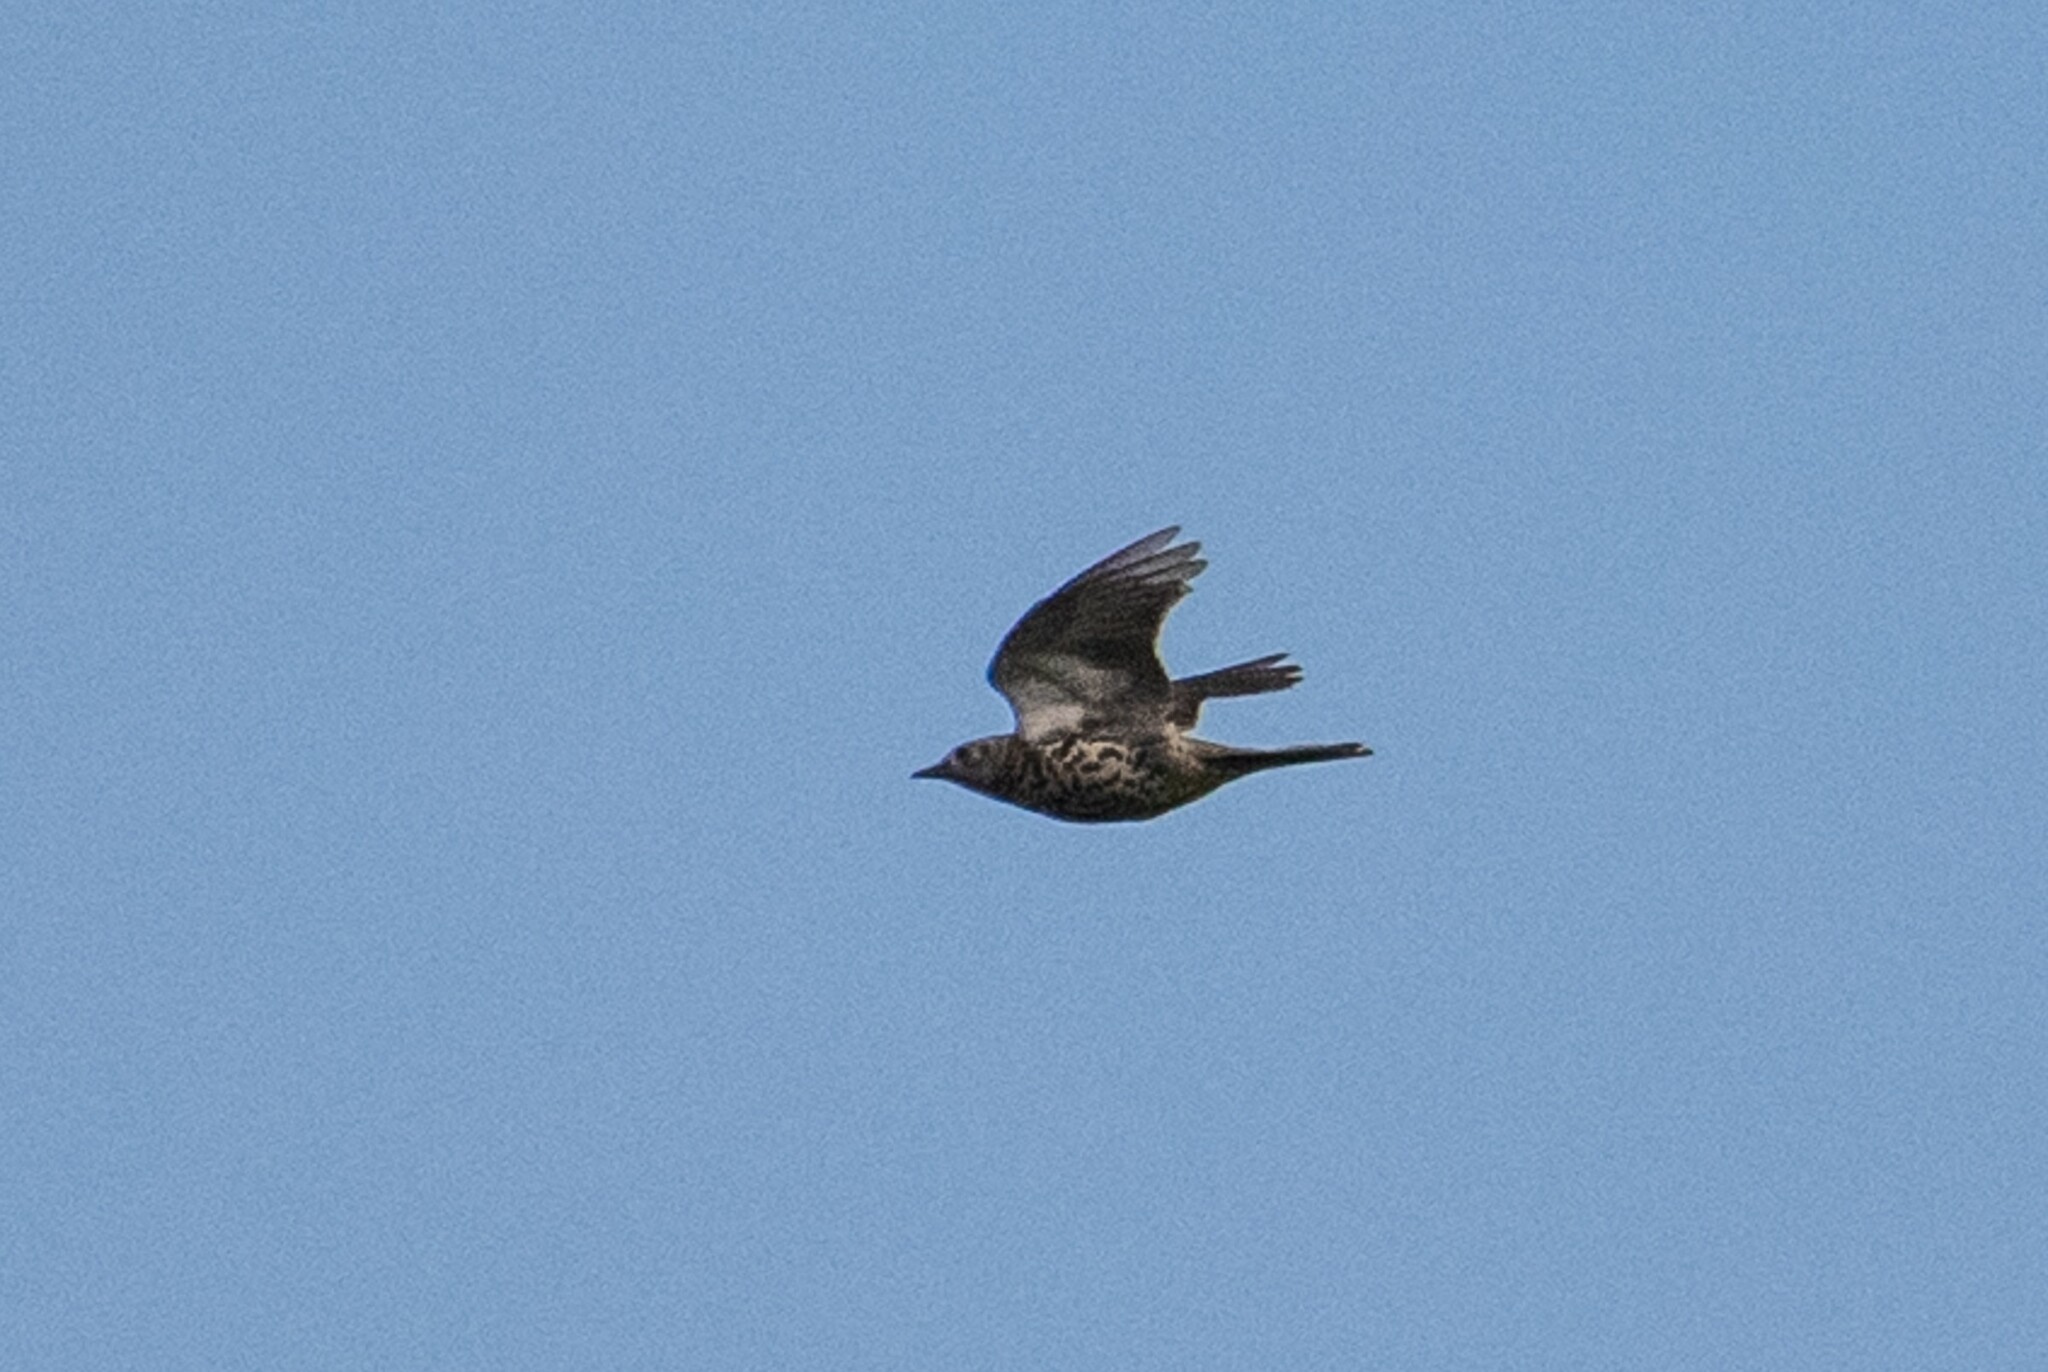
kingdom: Animalia
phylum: Chordata
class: Aves
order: Passeriformes
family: Turdidae
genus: Turdus
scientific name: Turdus philomelos
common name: Song thrush
